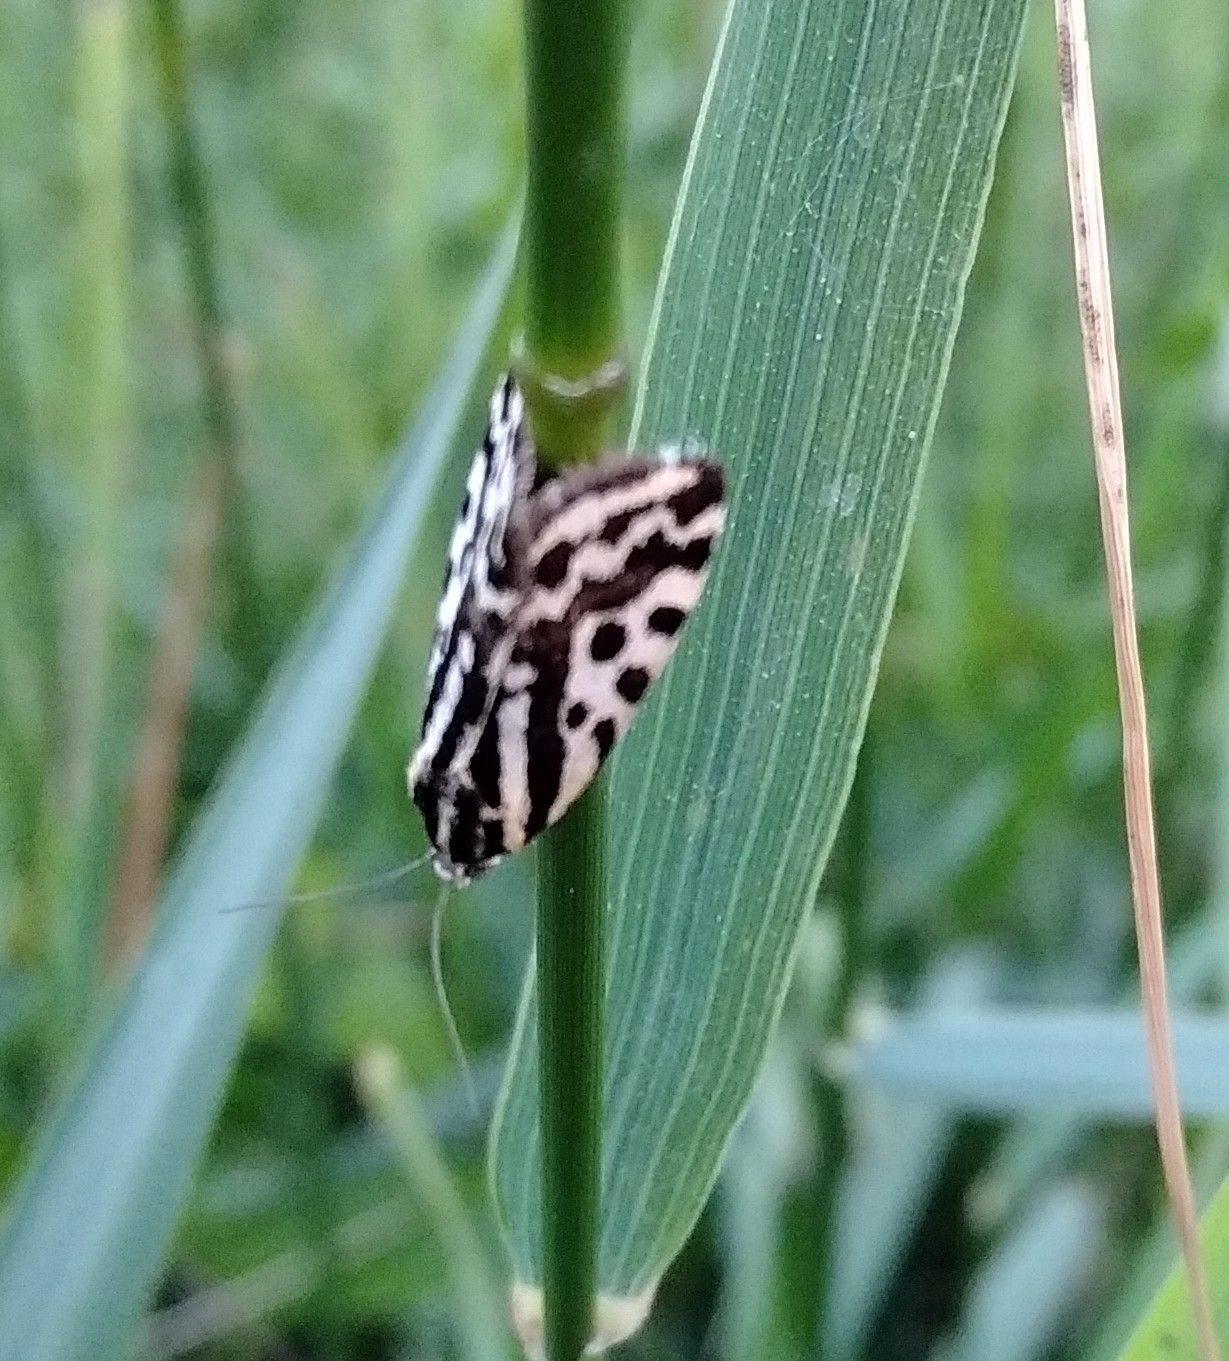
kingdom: Animalia
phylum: Arthropoda
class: Insecta
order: Lepidoptera
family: Noctuidae
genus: Acontia
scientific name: Acontia trabealis
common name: Spotted sulphur
